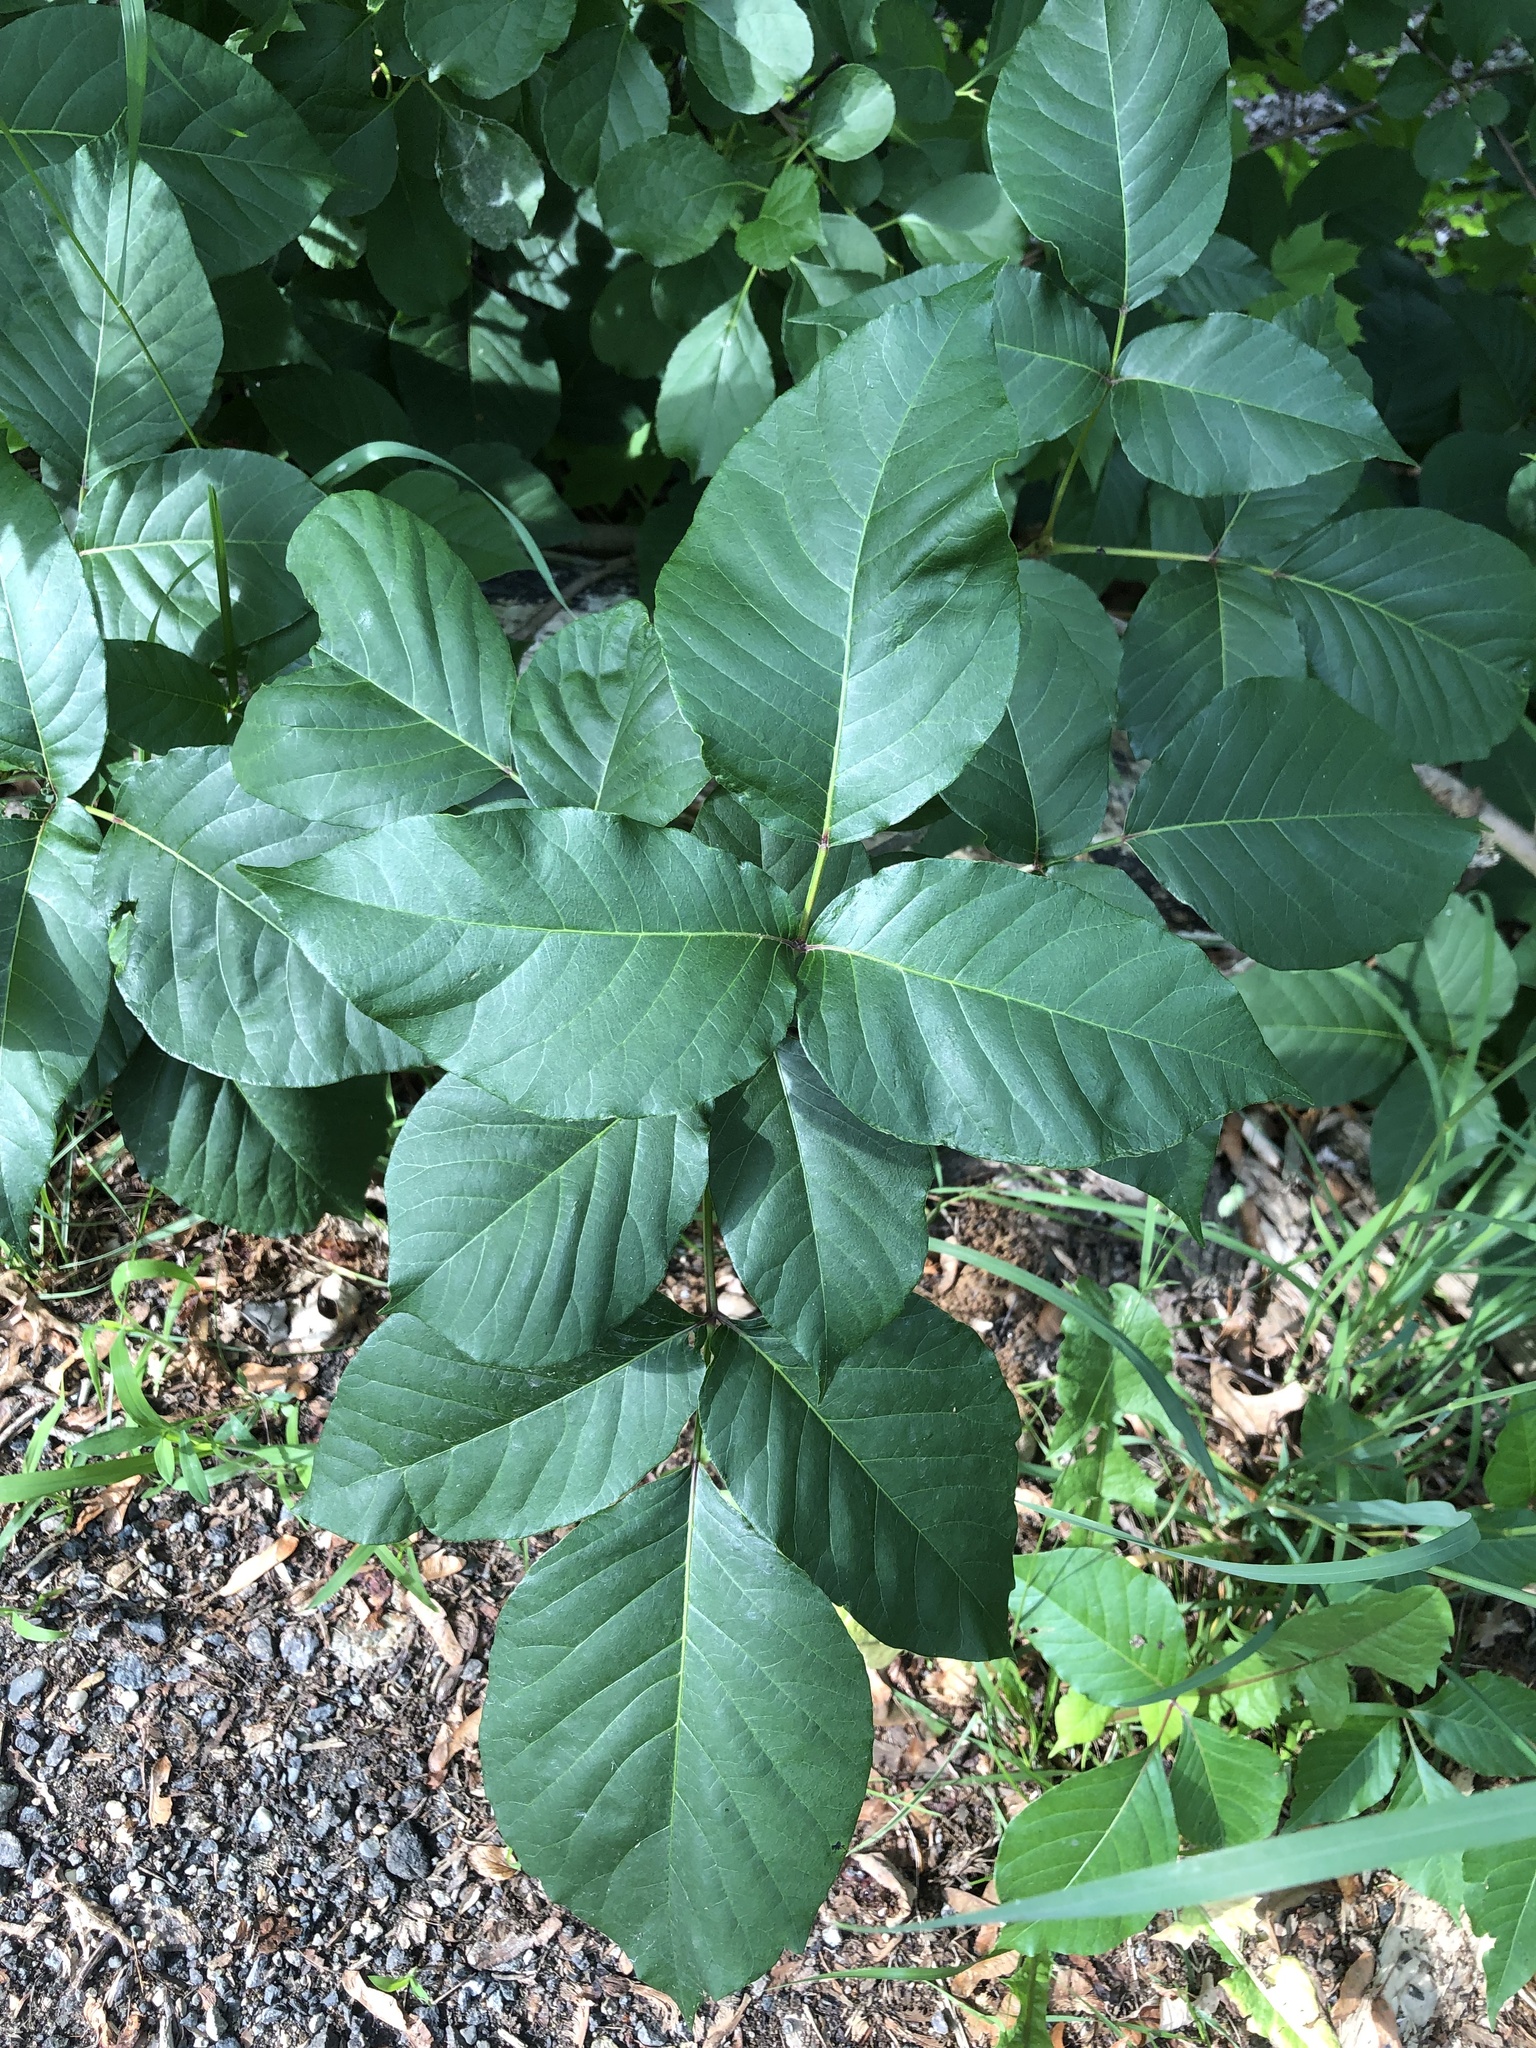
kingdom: Plantae
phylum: Tracheophyta
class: Magnoliopsida
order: Sapindales
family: Anacardiaceae
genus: Toxicodendron
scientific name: Toxicodendron radicans
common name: Poison ivy
